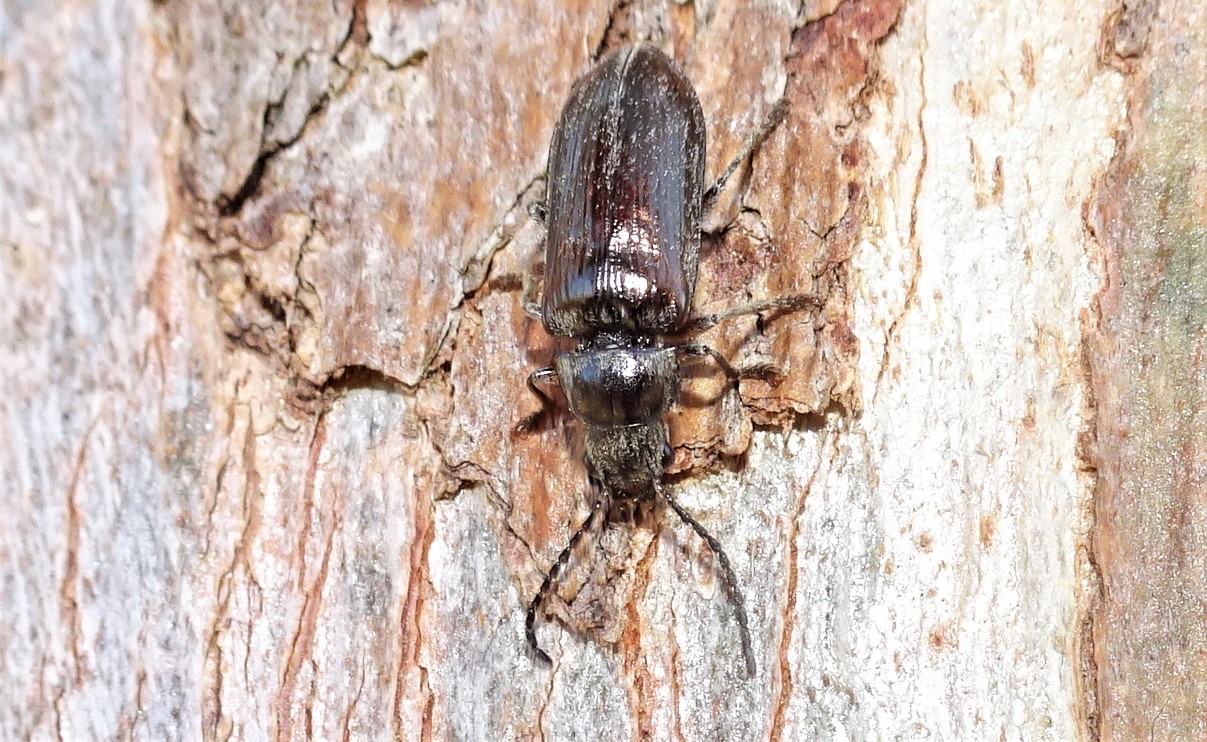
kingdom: Animalia
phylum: Arthropoda
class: Insecta
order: Coleoptera
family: Dascillidae
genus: Notodascillus
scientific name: Notodascillus brevicornis
